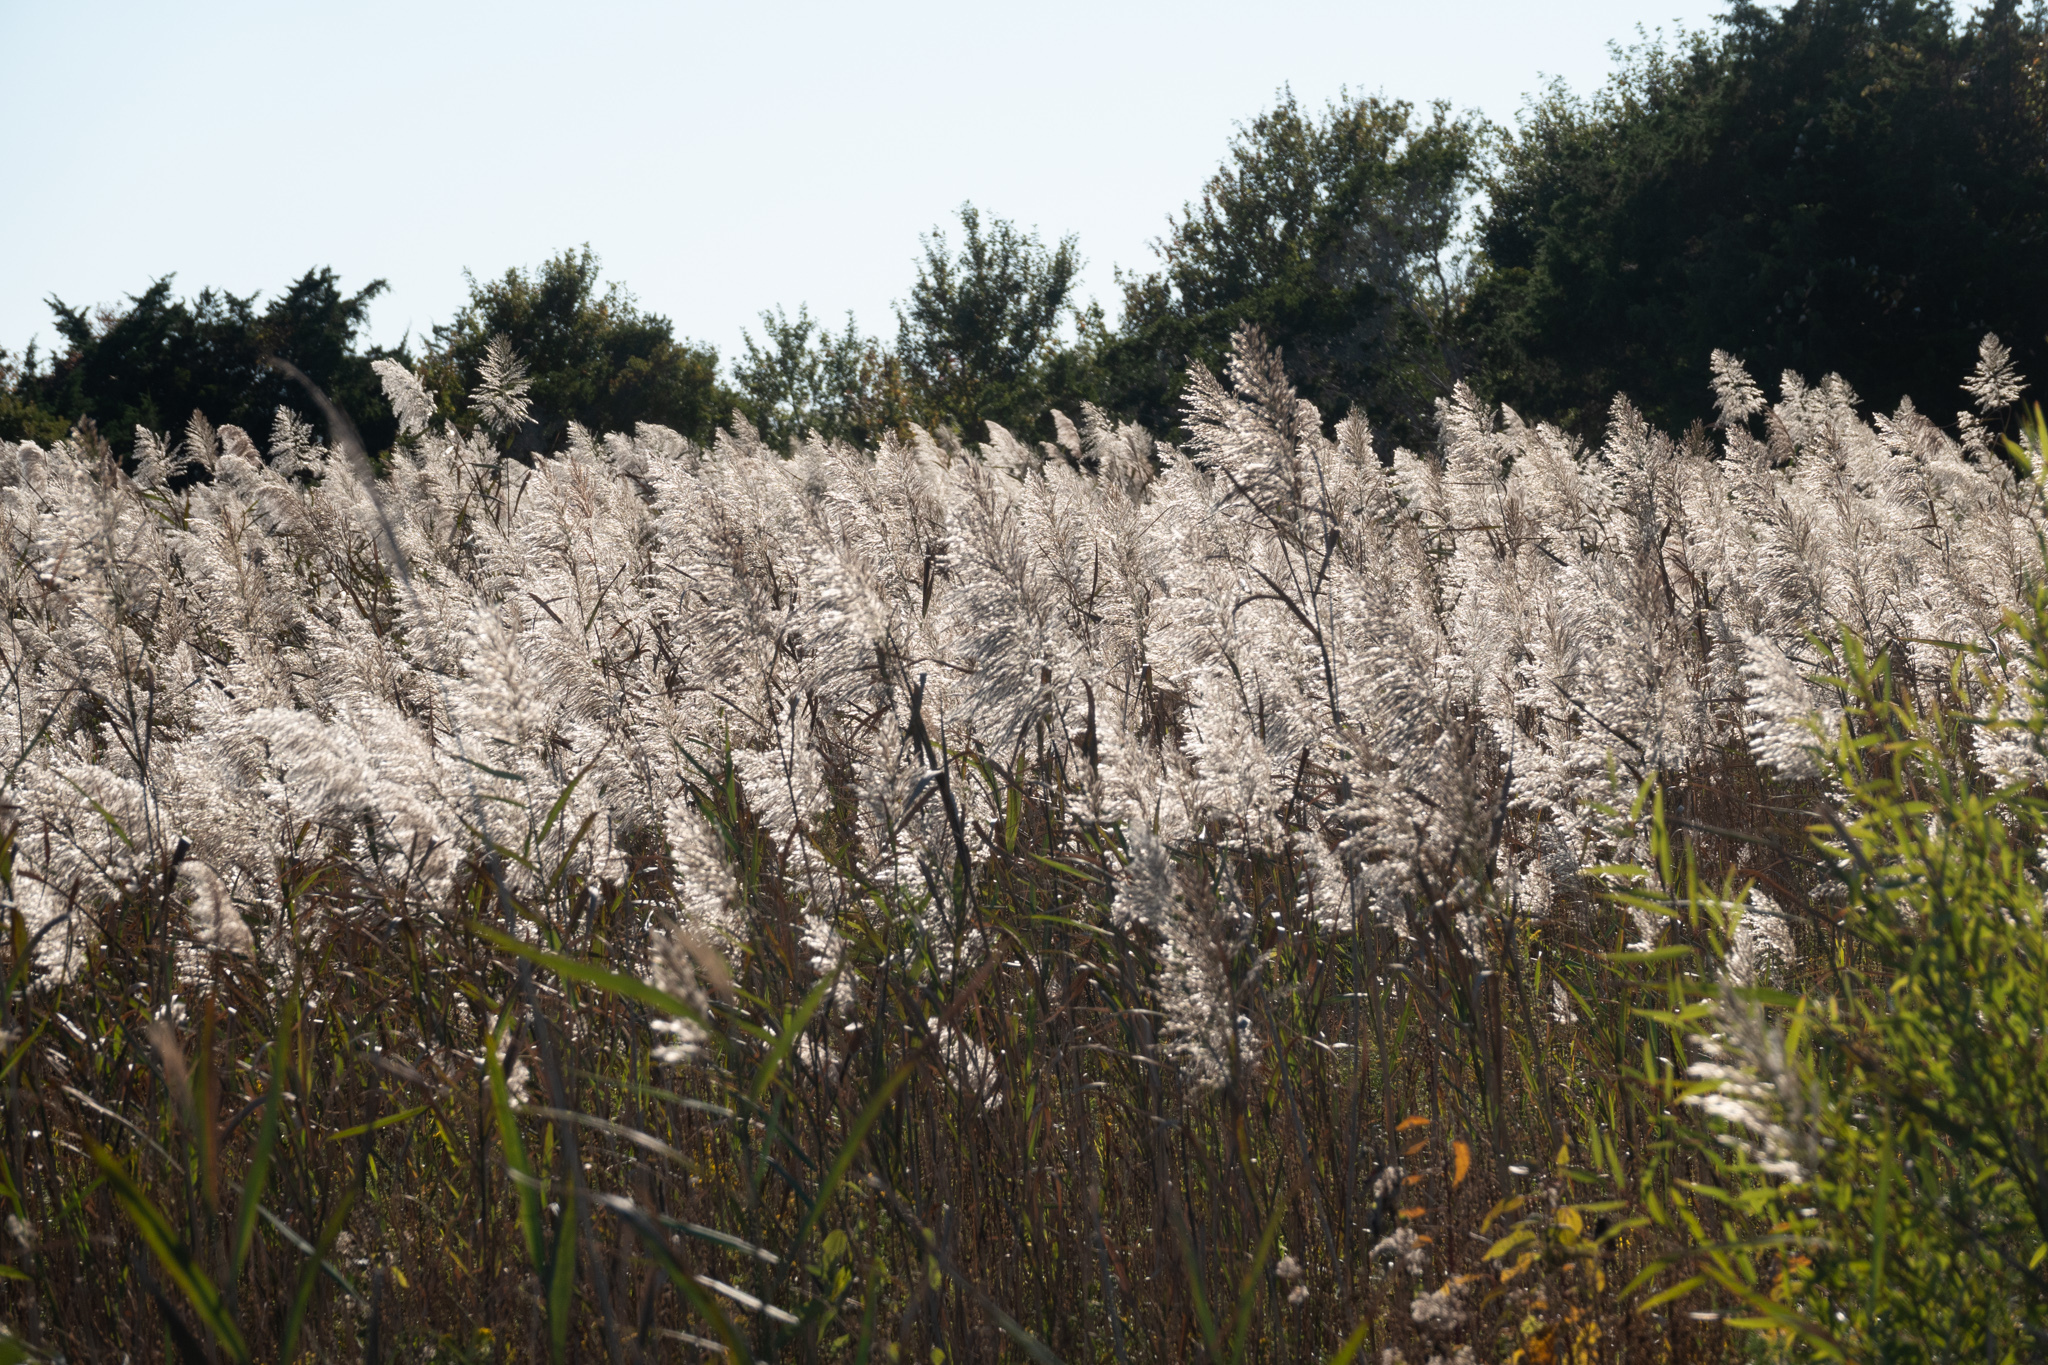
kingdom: Plantae
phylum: Tracheophyta
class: Liliopsida
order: Poales
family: Poaceae
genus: Phragmites
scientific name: Phragmites australis
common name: Common reed
